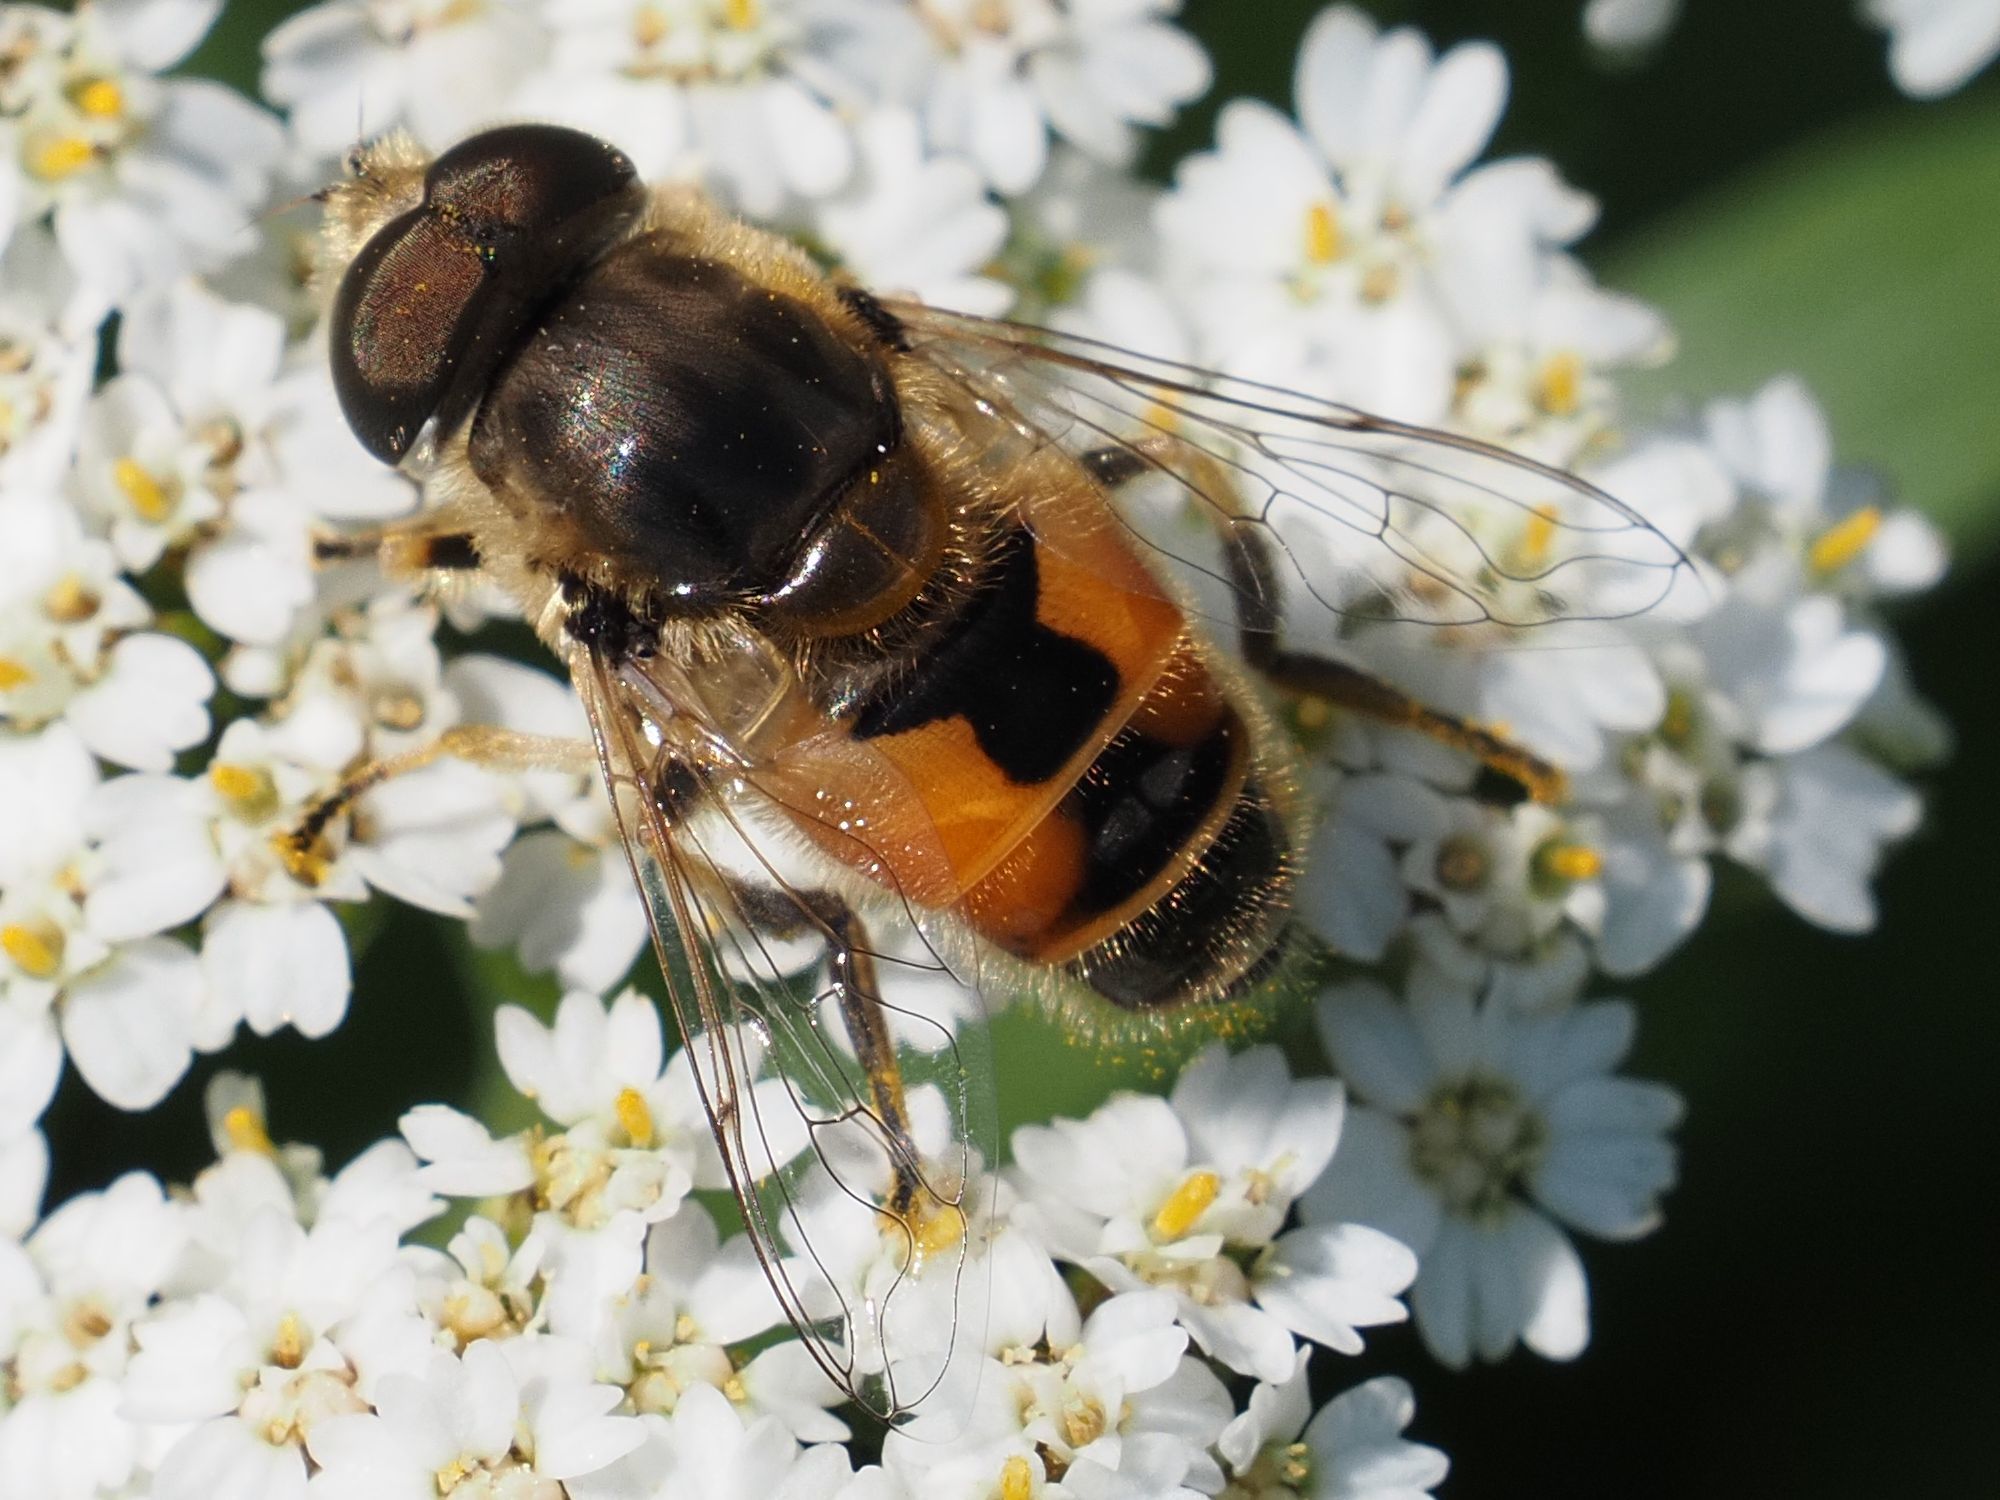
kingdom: Animalia
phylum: Arthropoda
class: Insecta
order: Diptera
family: Syrphidae
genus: Eristalis
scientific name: Eristalis arbustorum
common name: Hover fly
